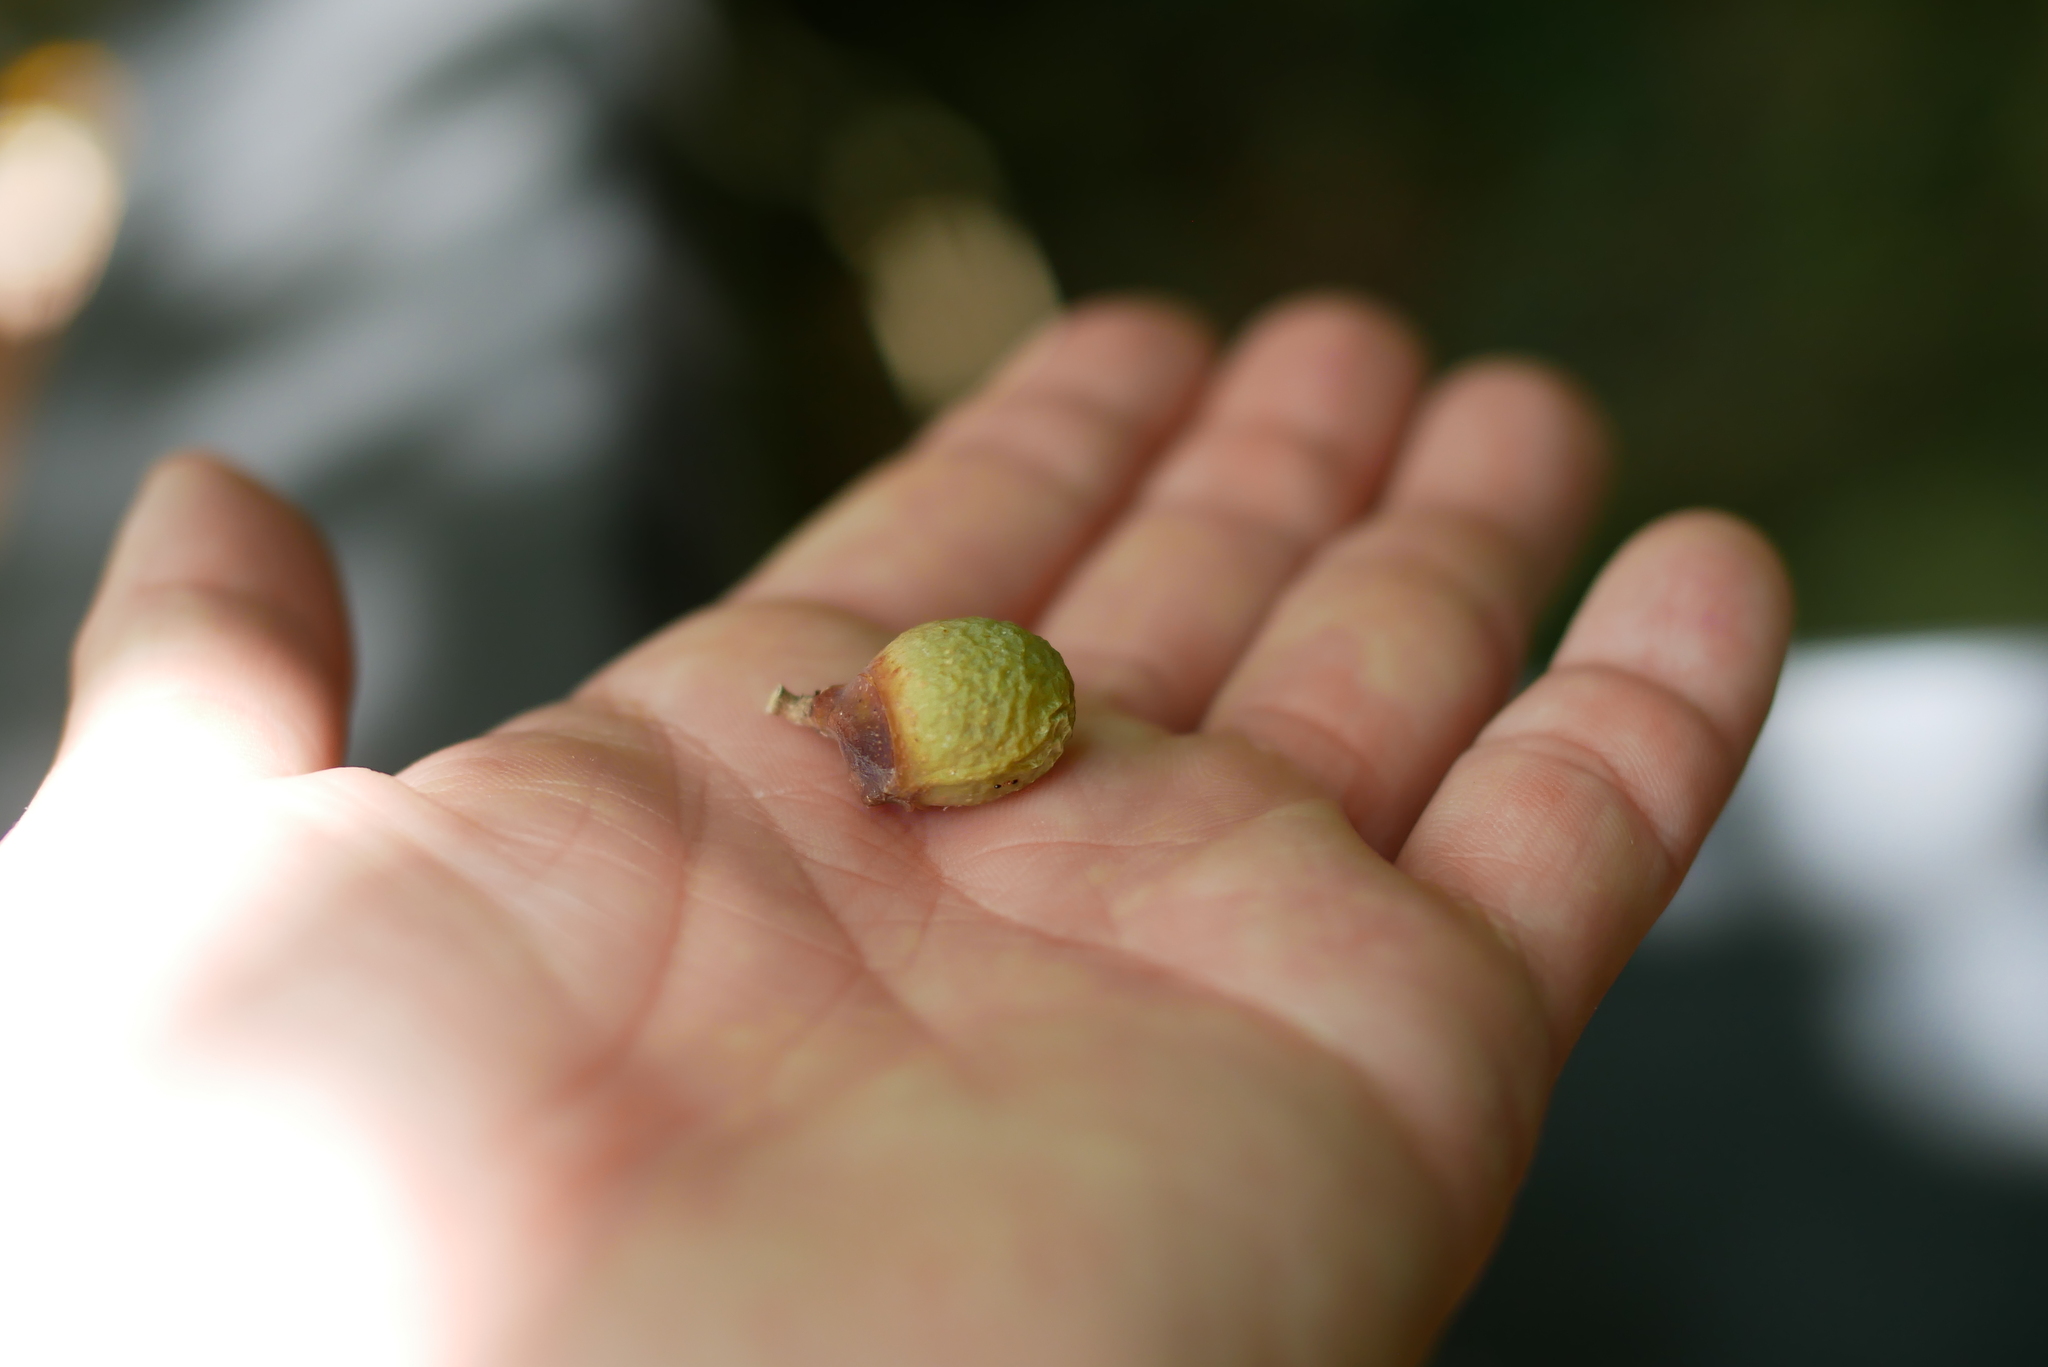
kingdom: Plantae
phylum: Tracheophyta
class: Magnoliopsida
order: Sapindales
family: Sapindaceae
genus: Sapindus
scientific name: Sapindus mukorossi
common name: Chinese soapberry
